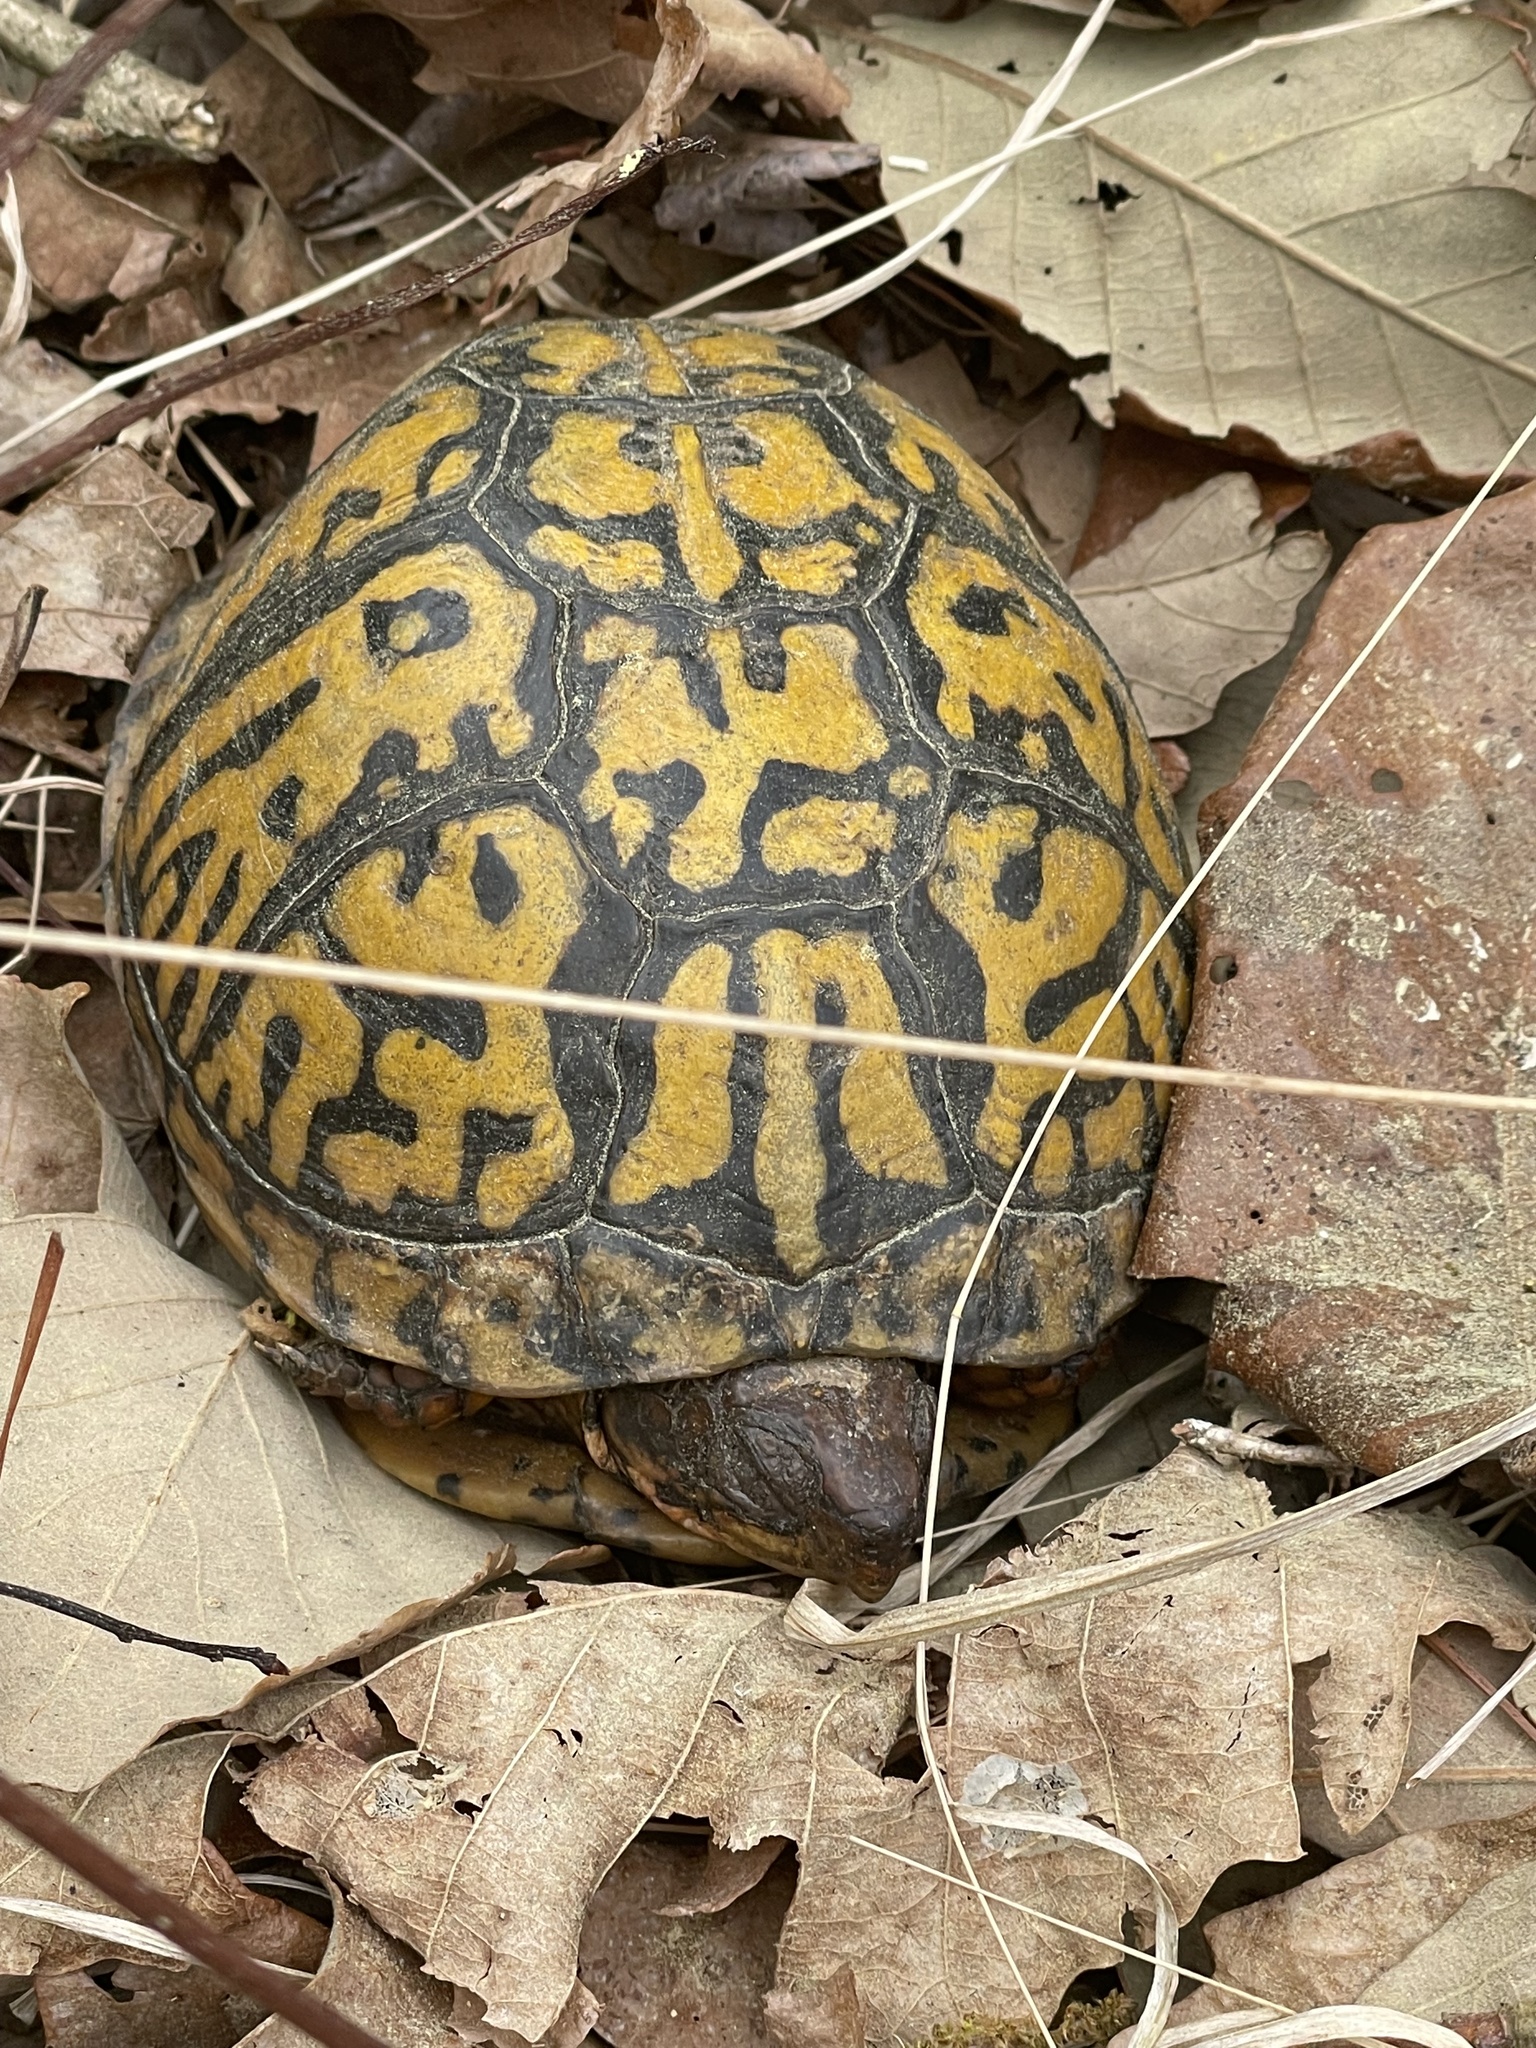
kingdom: Animalia
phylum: Chordata
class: Testudines
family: Emydidae
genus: Terrapene
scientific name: Terrapene carolina
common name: Common box turtle
